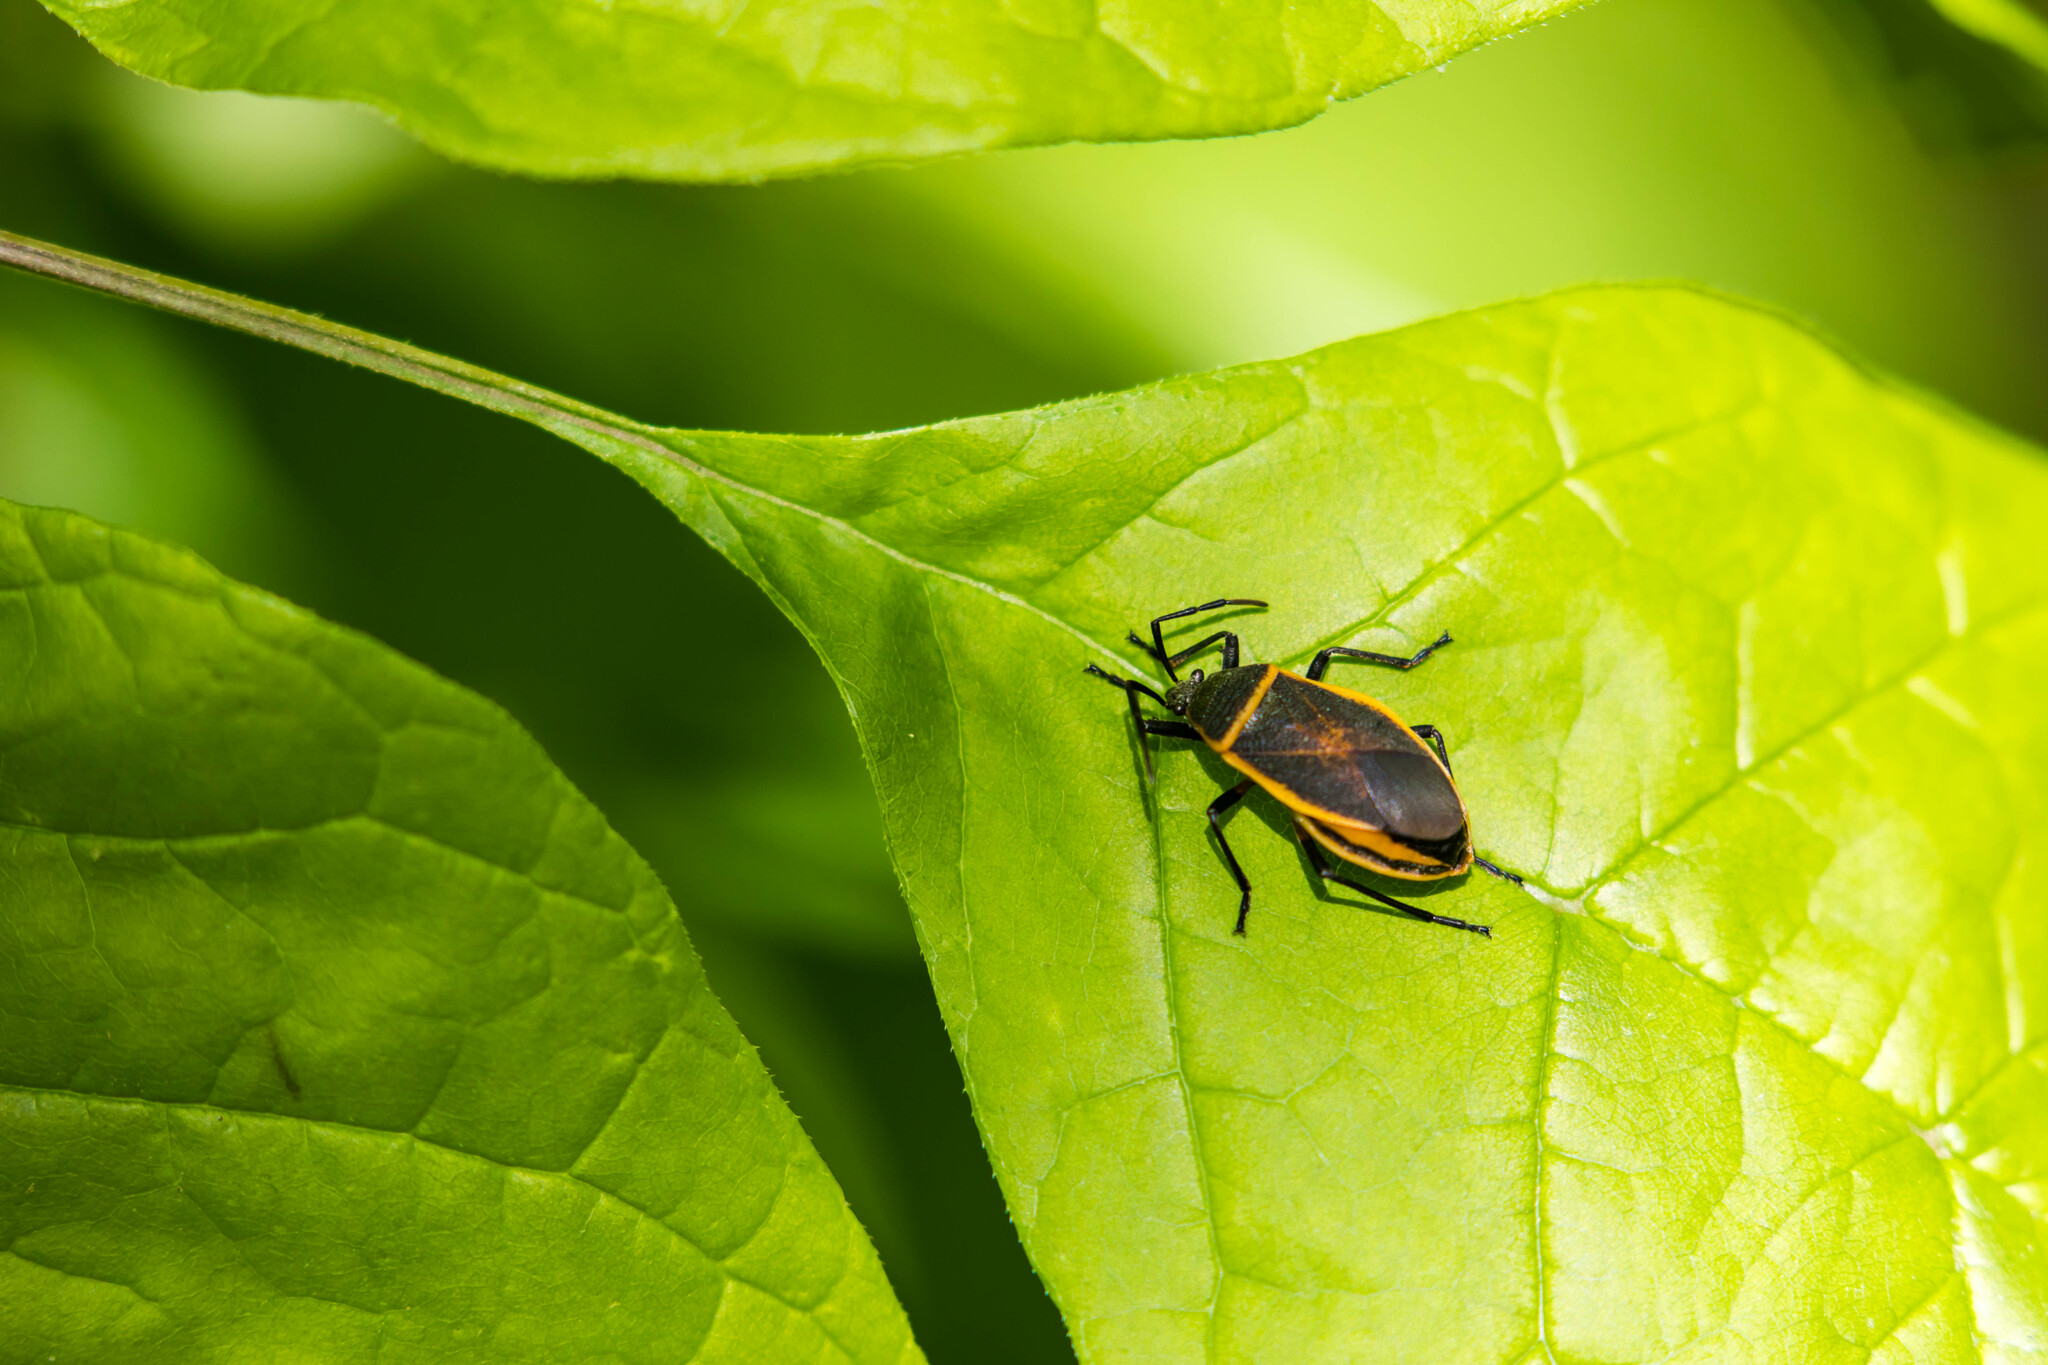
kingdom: Animalia
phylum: Arthropoda
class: Insecta
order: Hemiptera
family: Largidae
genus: Largus
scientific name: Largus succinctus
